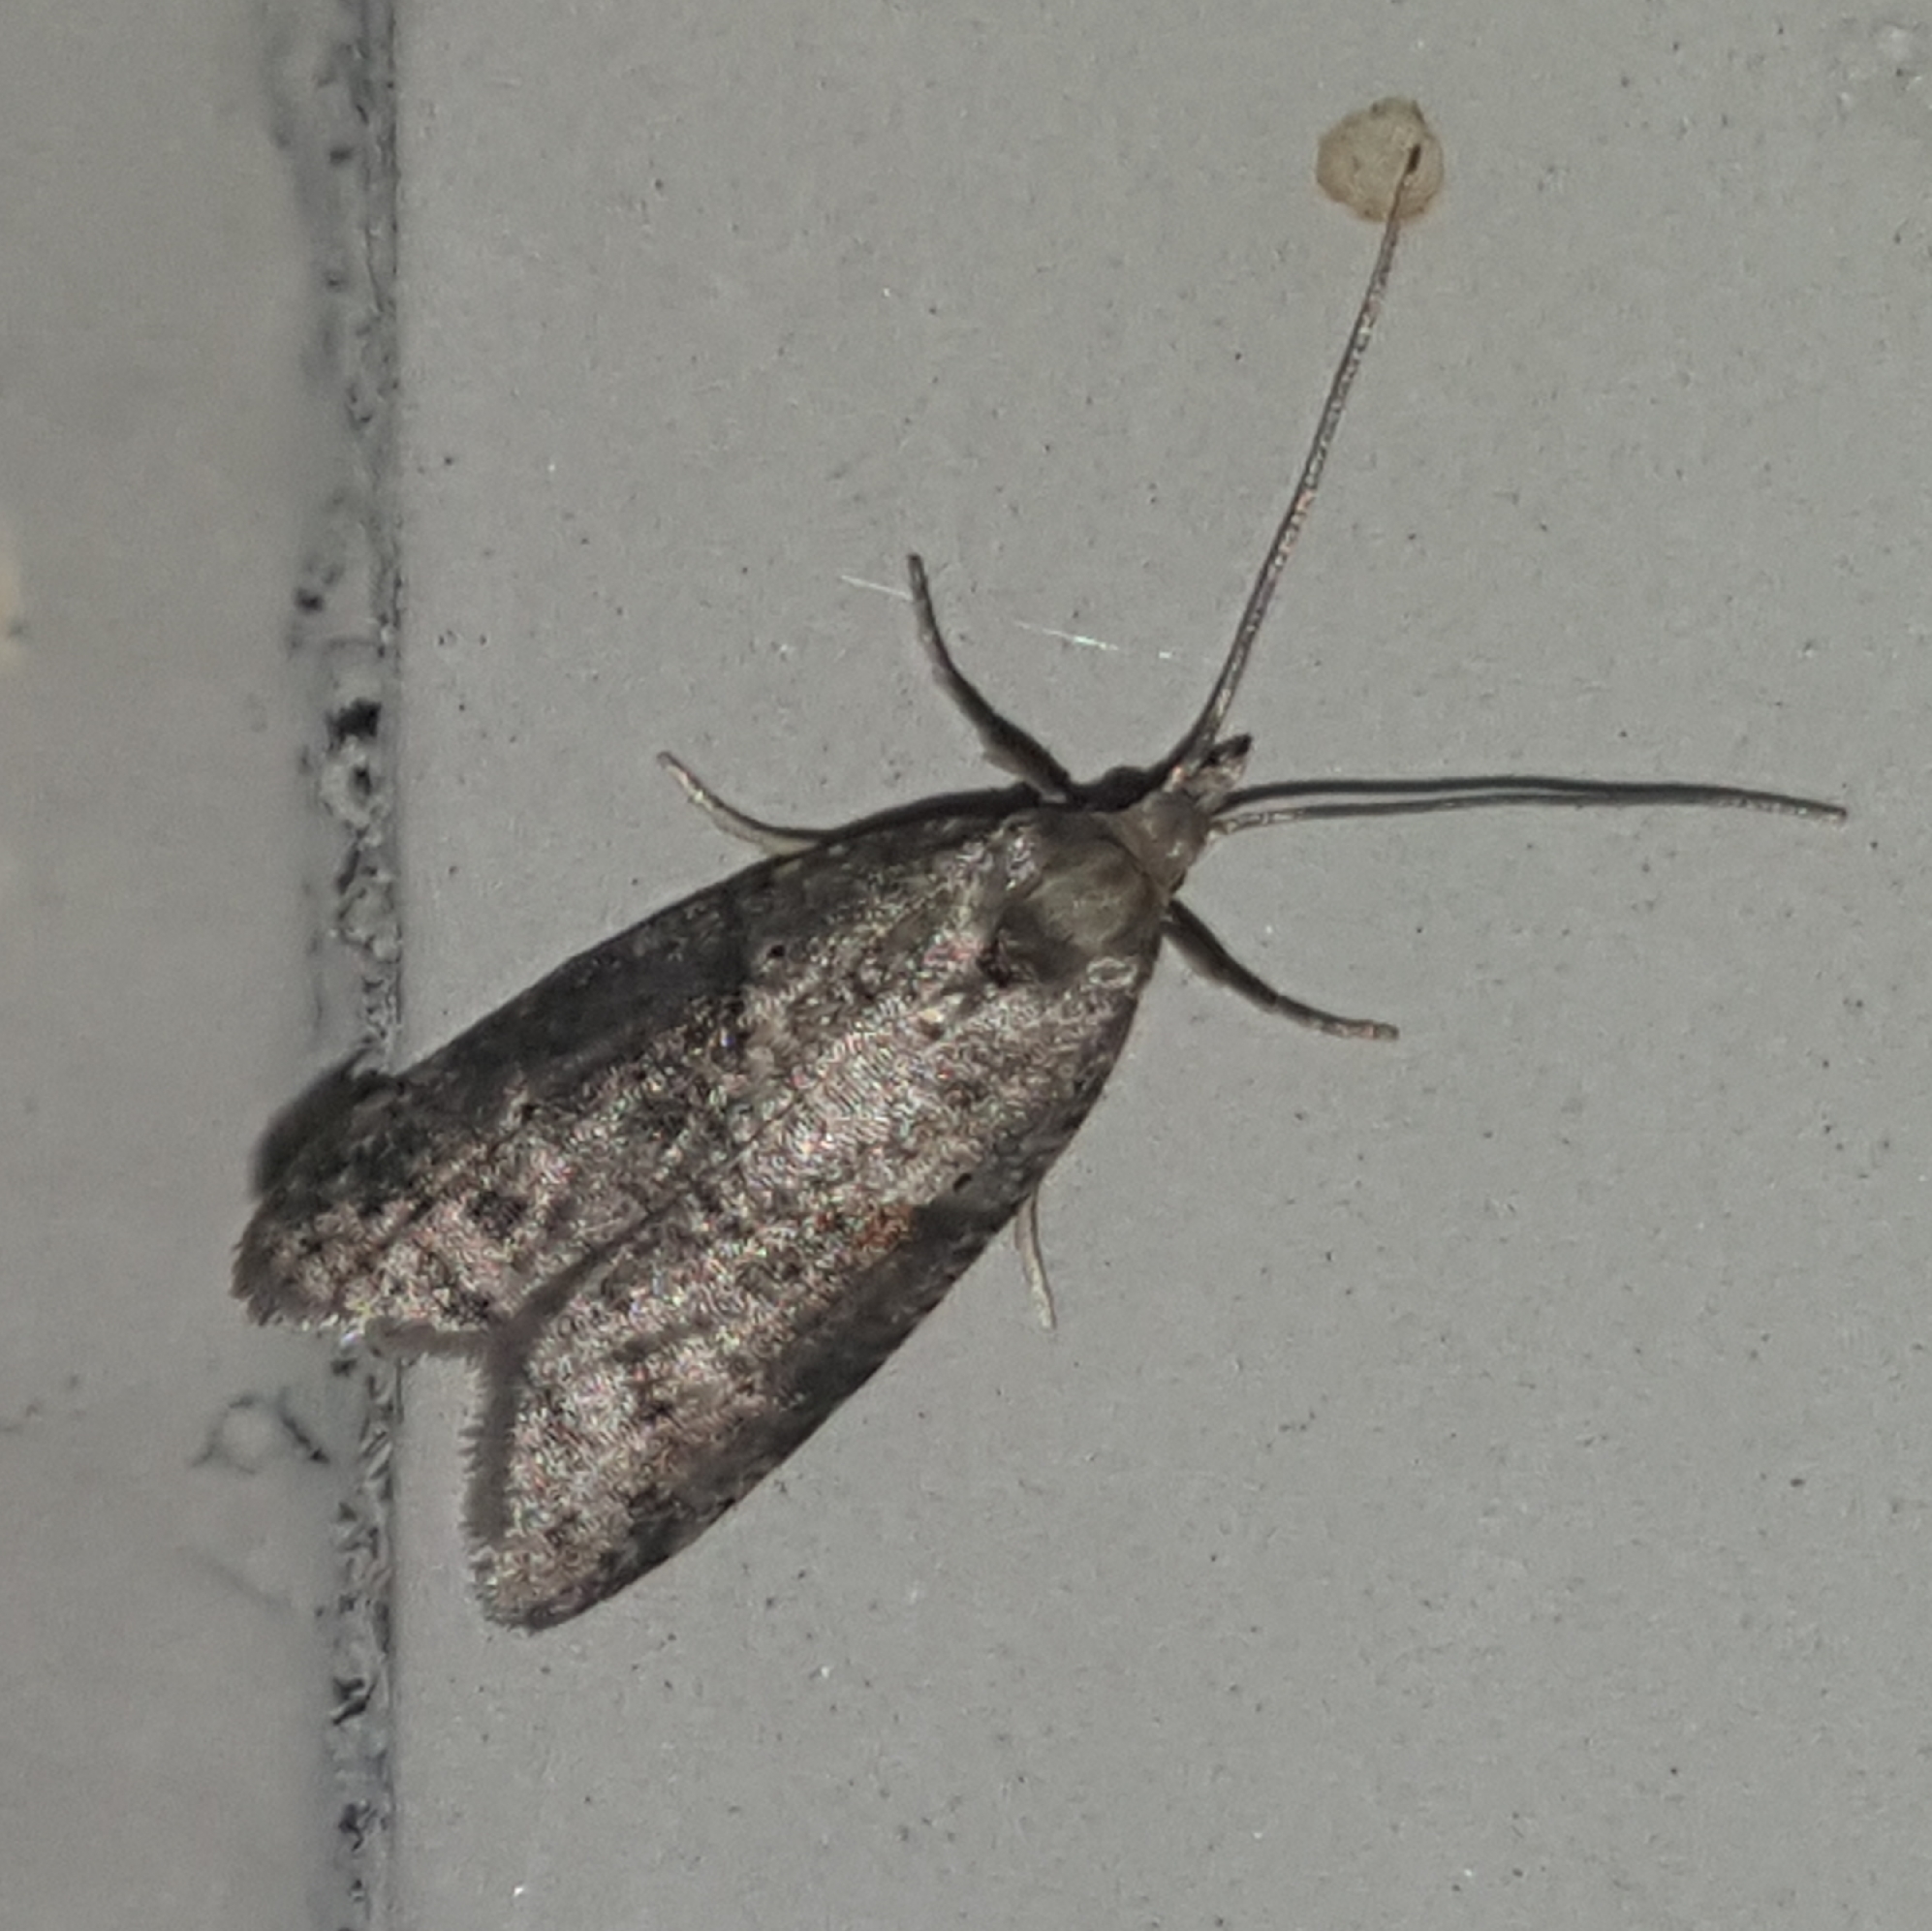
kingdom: Animalia
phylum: Arthropoda
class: Insecta
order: Lepidoptera
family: Copromorphidae
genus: Lotisma
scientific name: Lotisma trigonana
